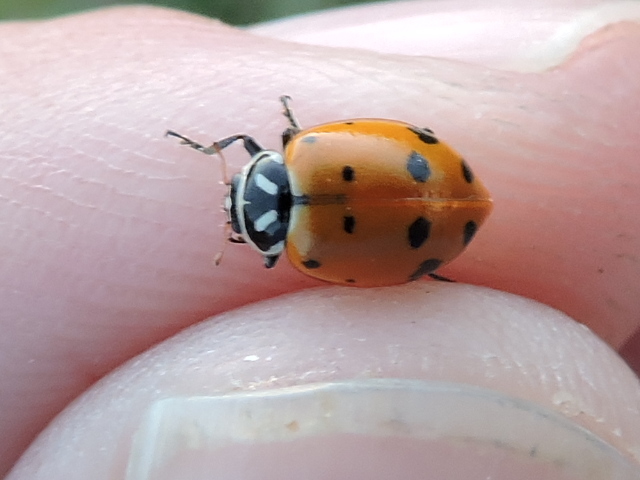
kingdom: Animalia
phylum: Arthropoda
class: Insecta
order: Coleoptera
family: Coccinellidae
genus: Hippodamia
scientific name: Hippodamia convergens
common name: Convergent lady beetle
